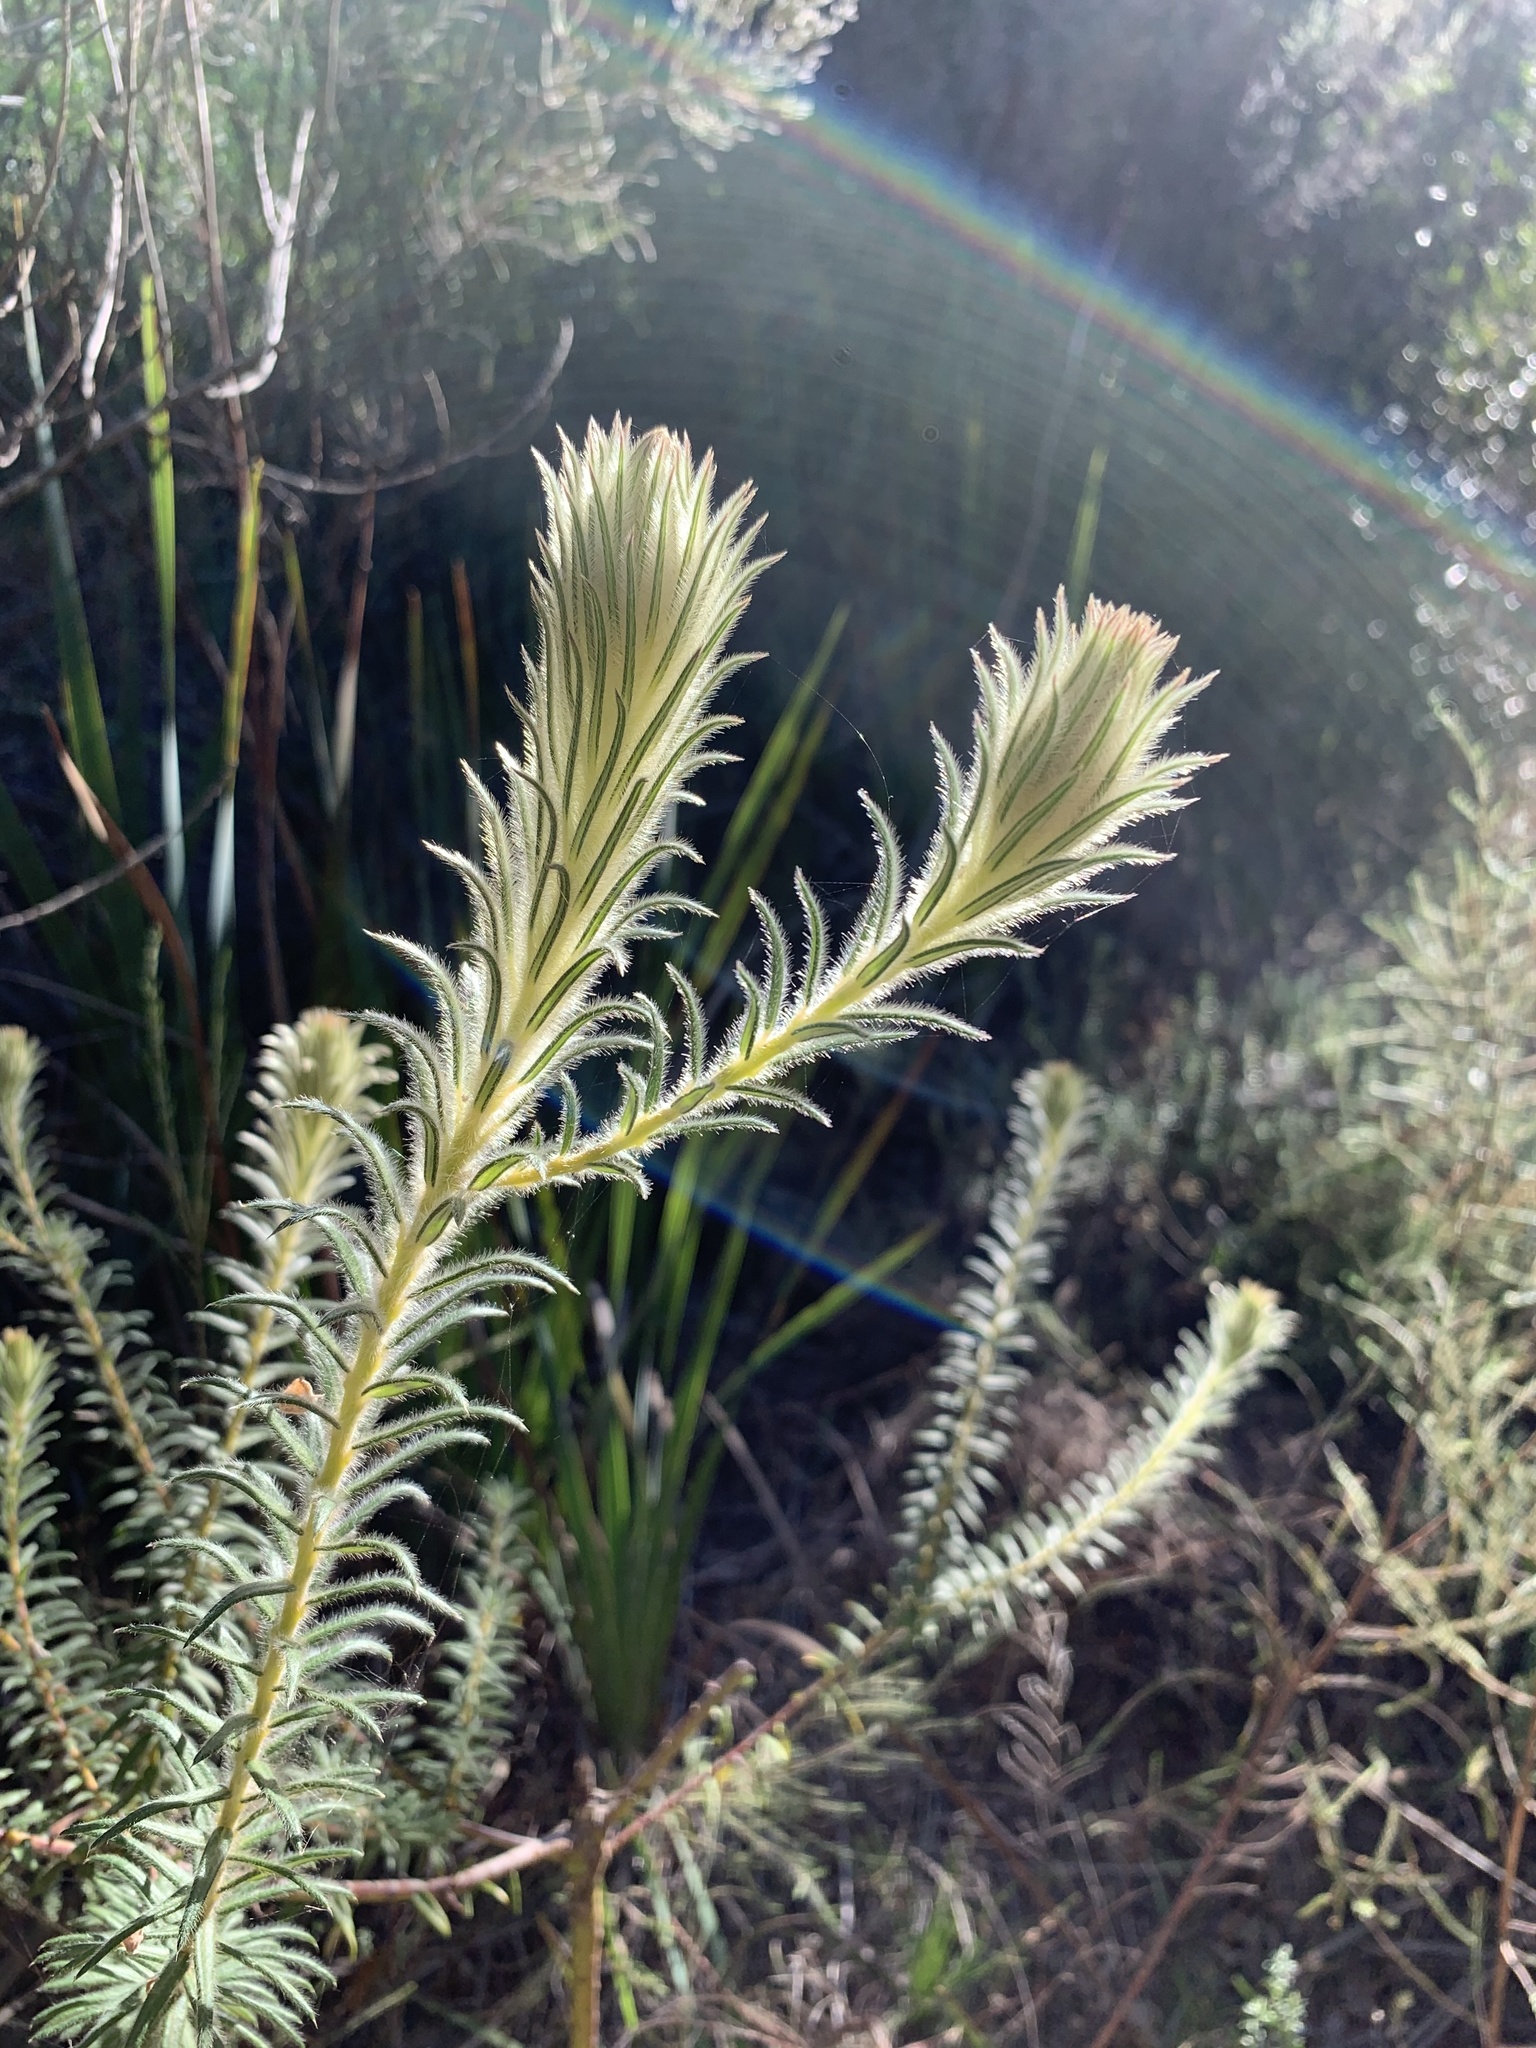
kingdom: Plantae
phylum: Tracheophyta
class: Magnoliopsida
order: Rosales
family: Rhamnaceae
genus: Phylica
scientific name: Phylica pubescens
